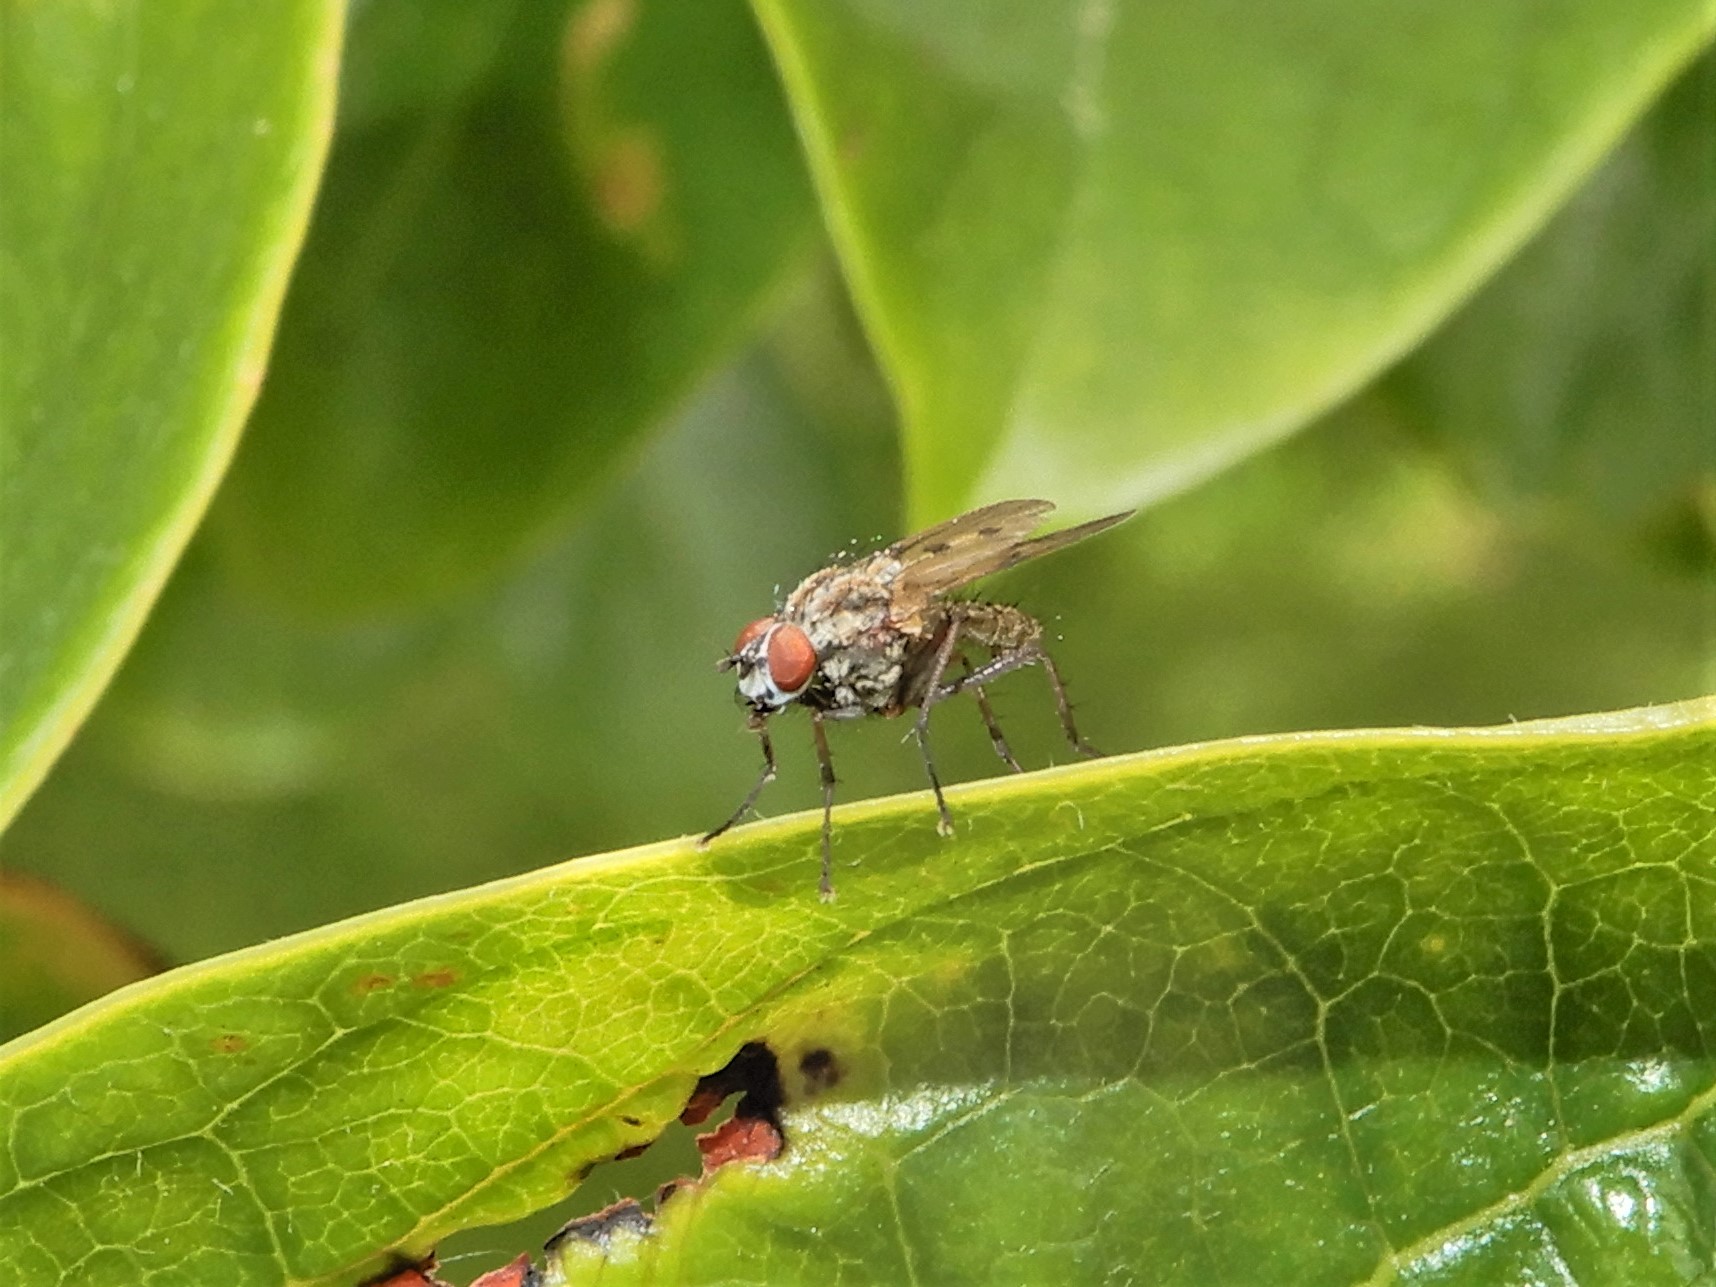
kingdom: Animalia
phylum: Arthropoda
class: Insecta
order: Diptera
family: Anthomyiidae
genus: Anthomyia
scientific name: Anthomyia punctipennis
